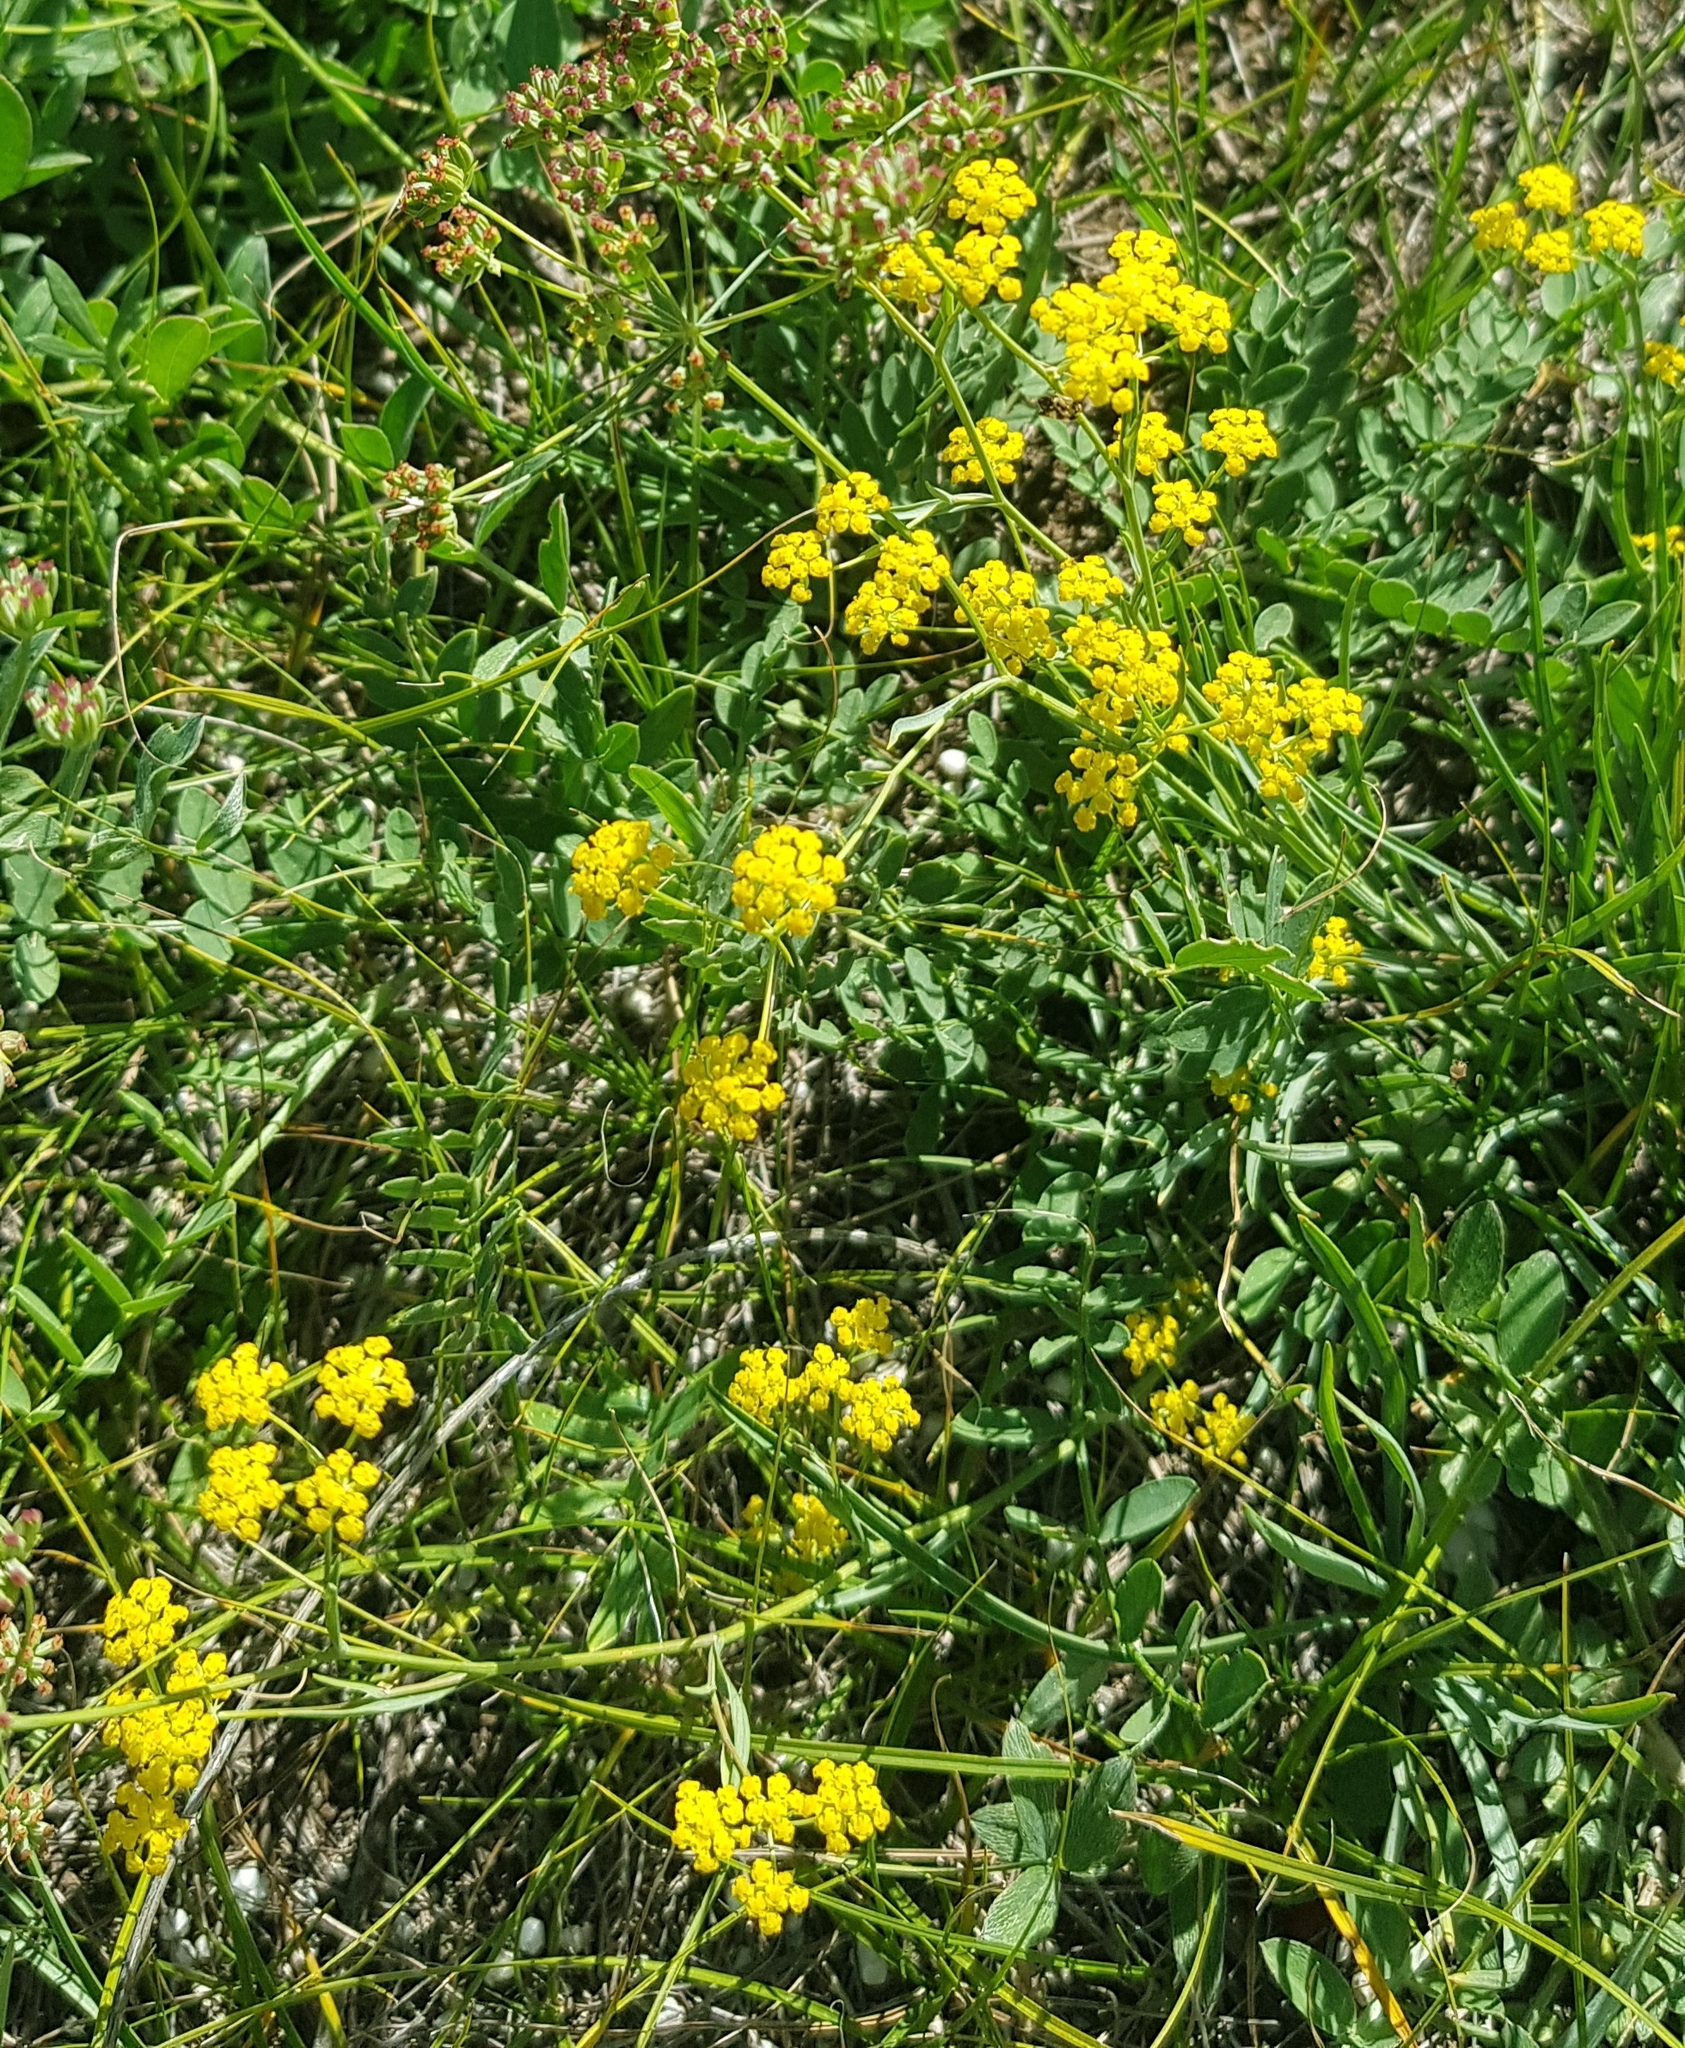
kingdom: Plantae
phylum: Tracheophyta
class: Magnoliopsida
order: Apiales
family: Apiaceae
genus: Bupleurum
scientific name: Bupleurum bicaule
